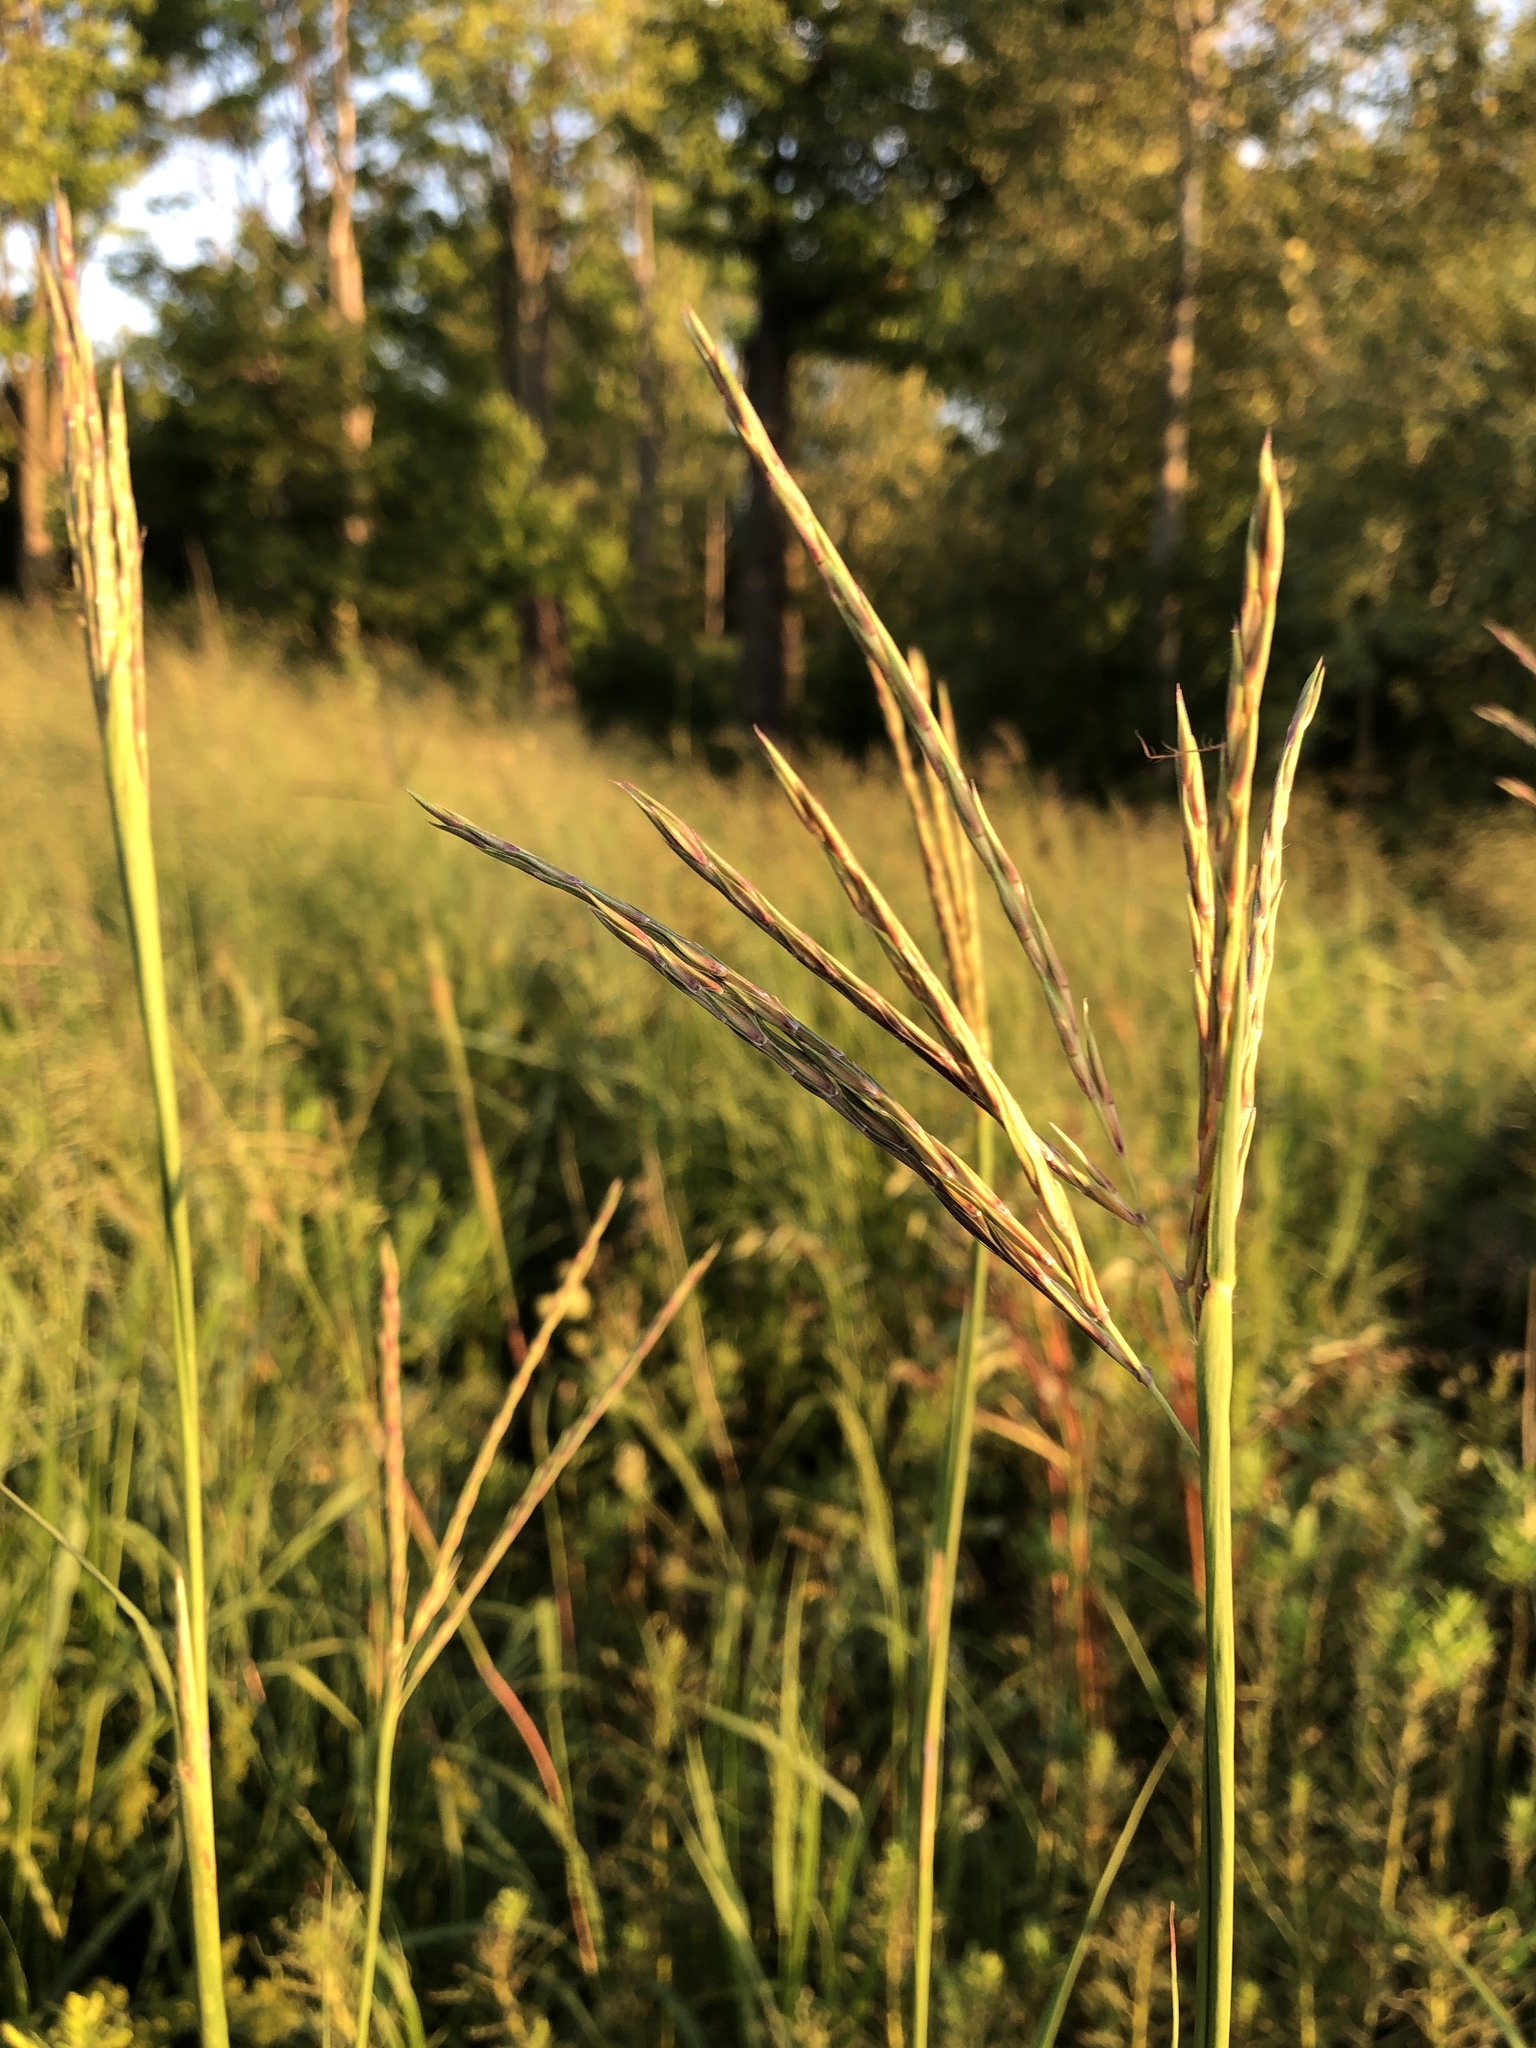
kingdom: Plantae
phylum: Tracheophyta
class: Liliopsida
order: Poales
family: Poaceae
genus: Andropogon
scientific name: Andropogon gerardi
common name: Big bluestem
